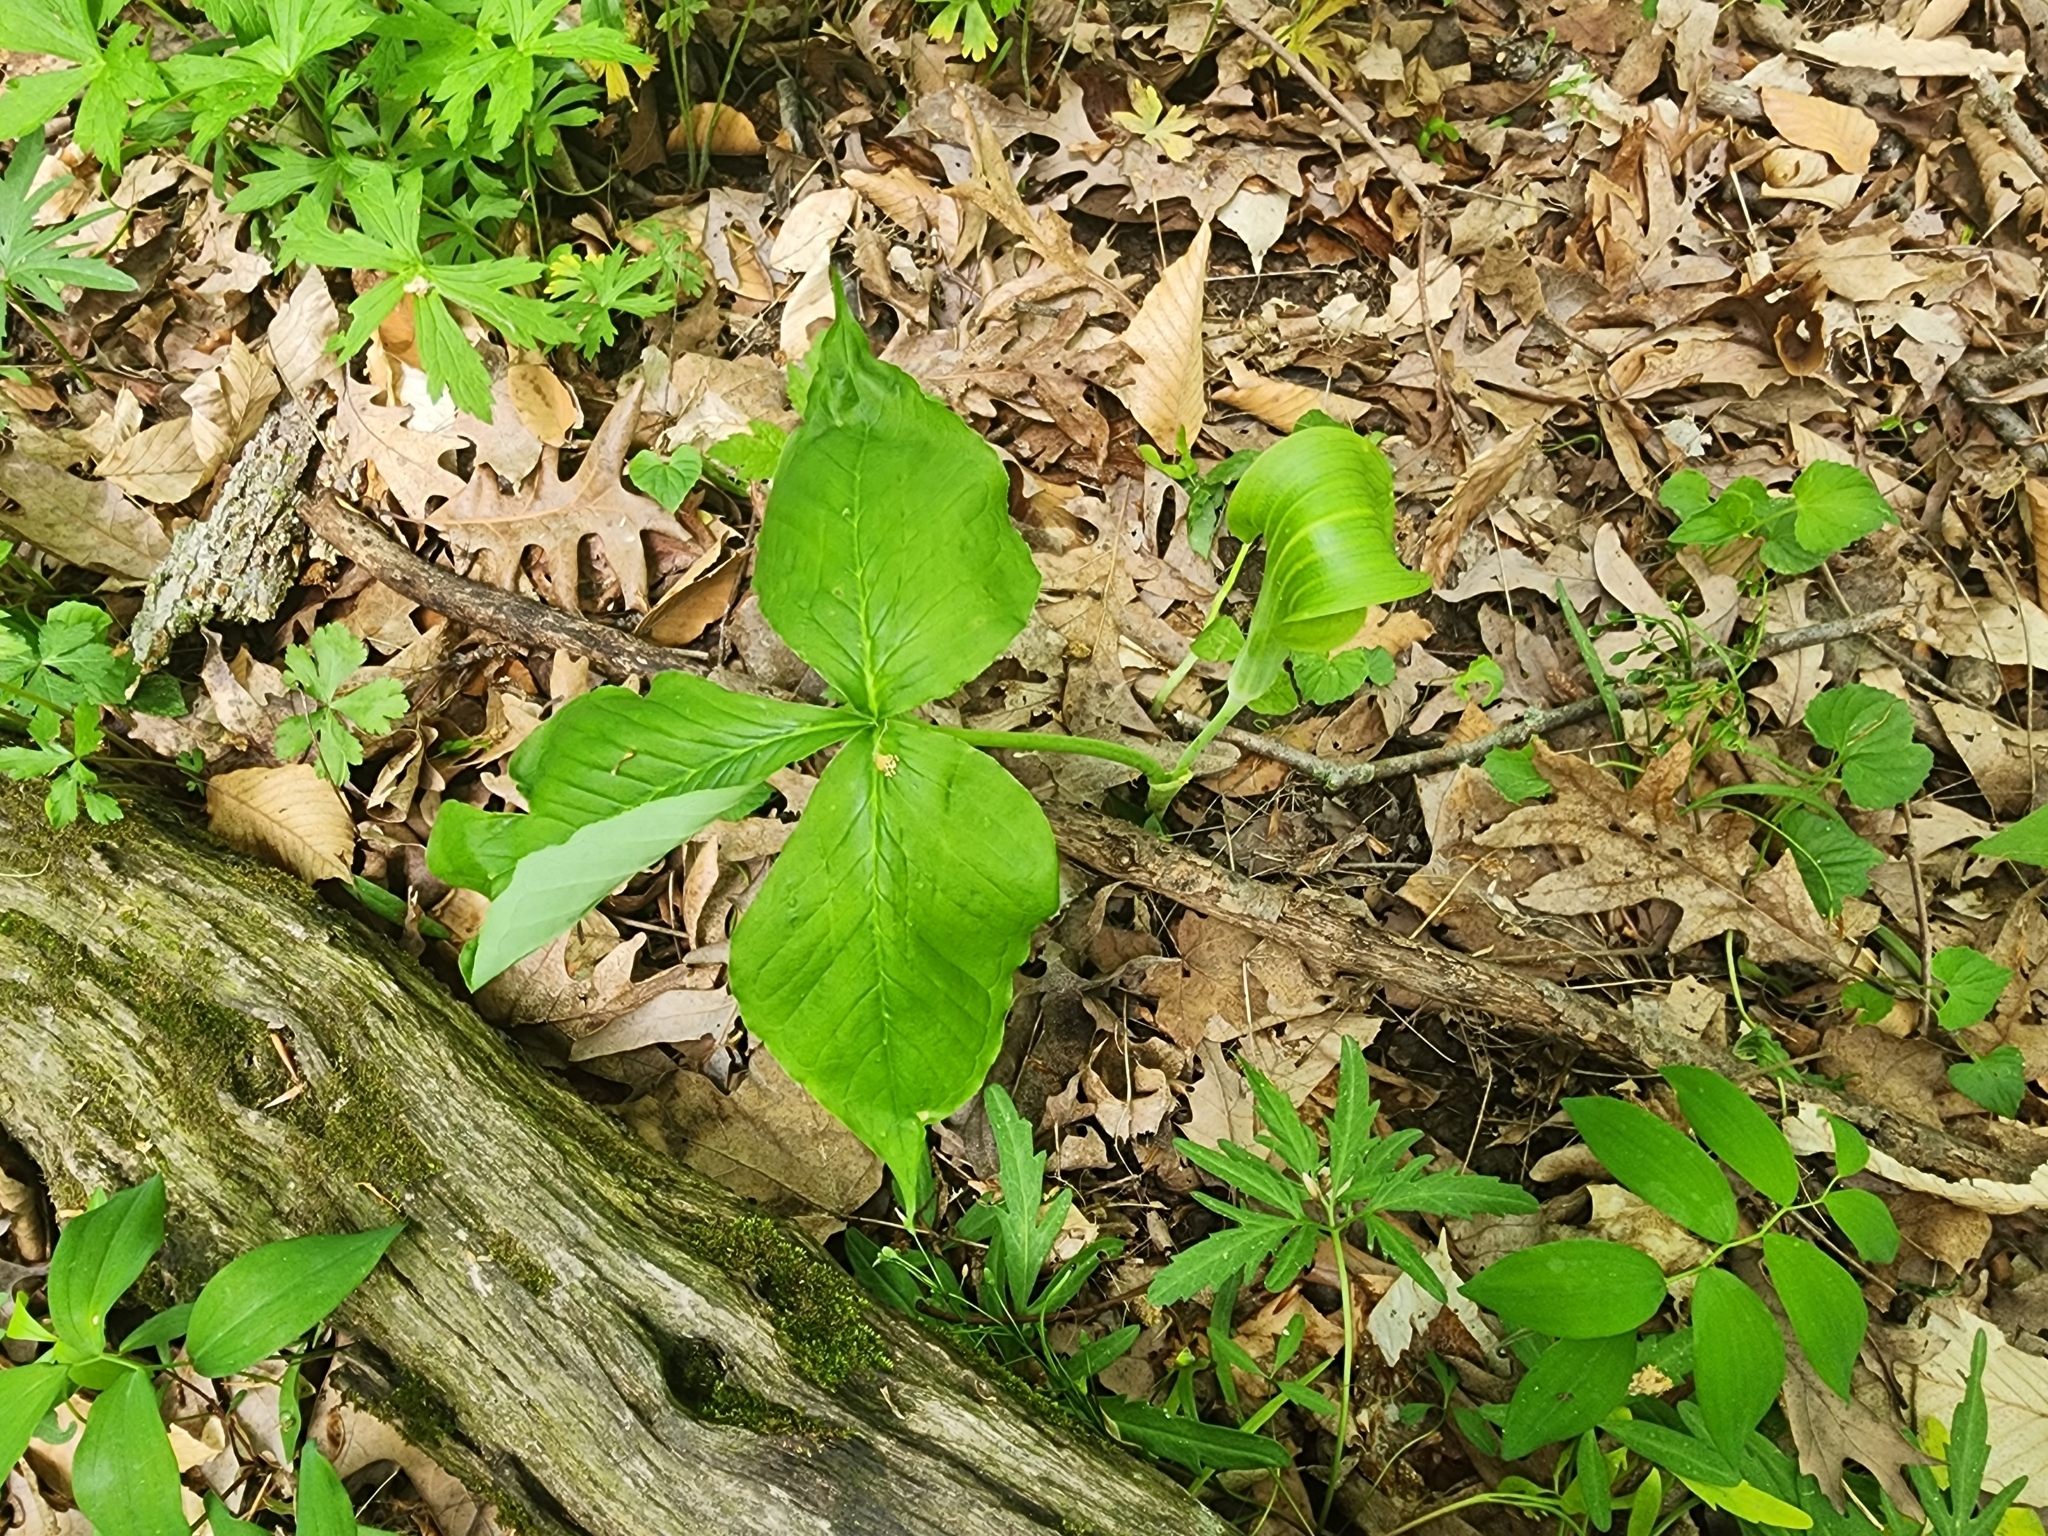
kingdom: Plantae
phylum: Tracheophyta
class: Liliopsida
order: Alismatales
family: Araceae
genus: Arisaema
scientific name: Arisaema triphyllum
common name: Jack-in-the-pulpit
